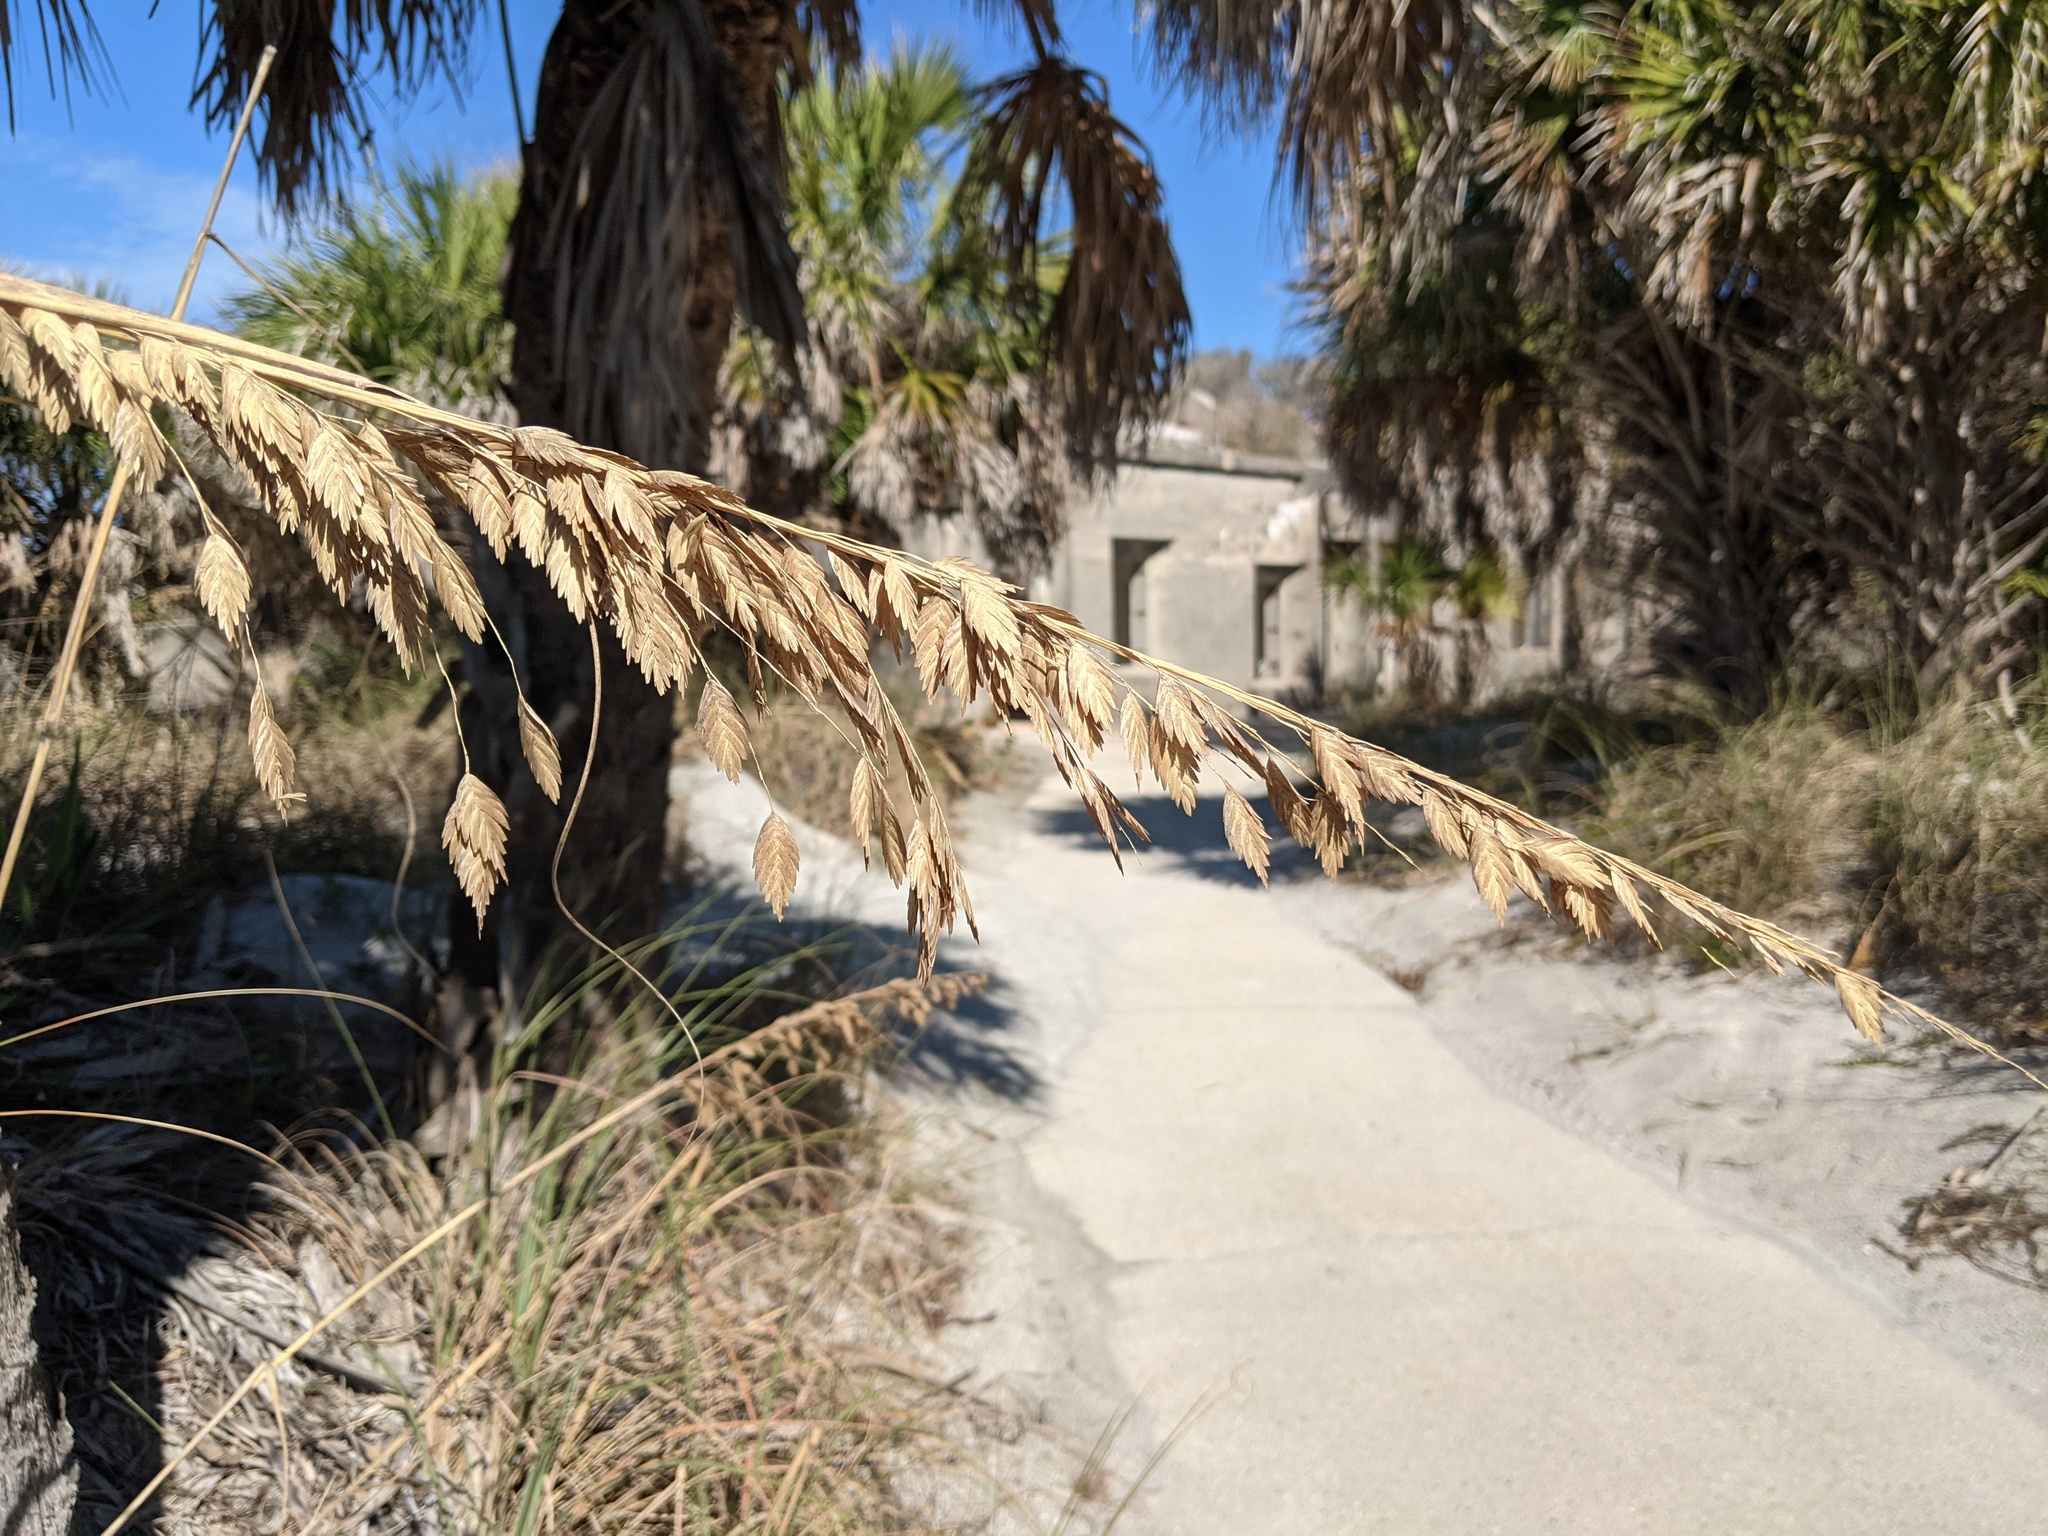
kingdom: Plantae
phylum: Tracheophyta
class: Liliopsida
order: Poales
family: Poaceae
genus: Uniola
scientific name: Uniola paniculata
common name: Seaside-oats
